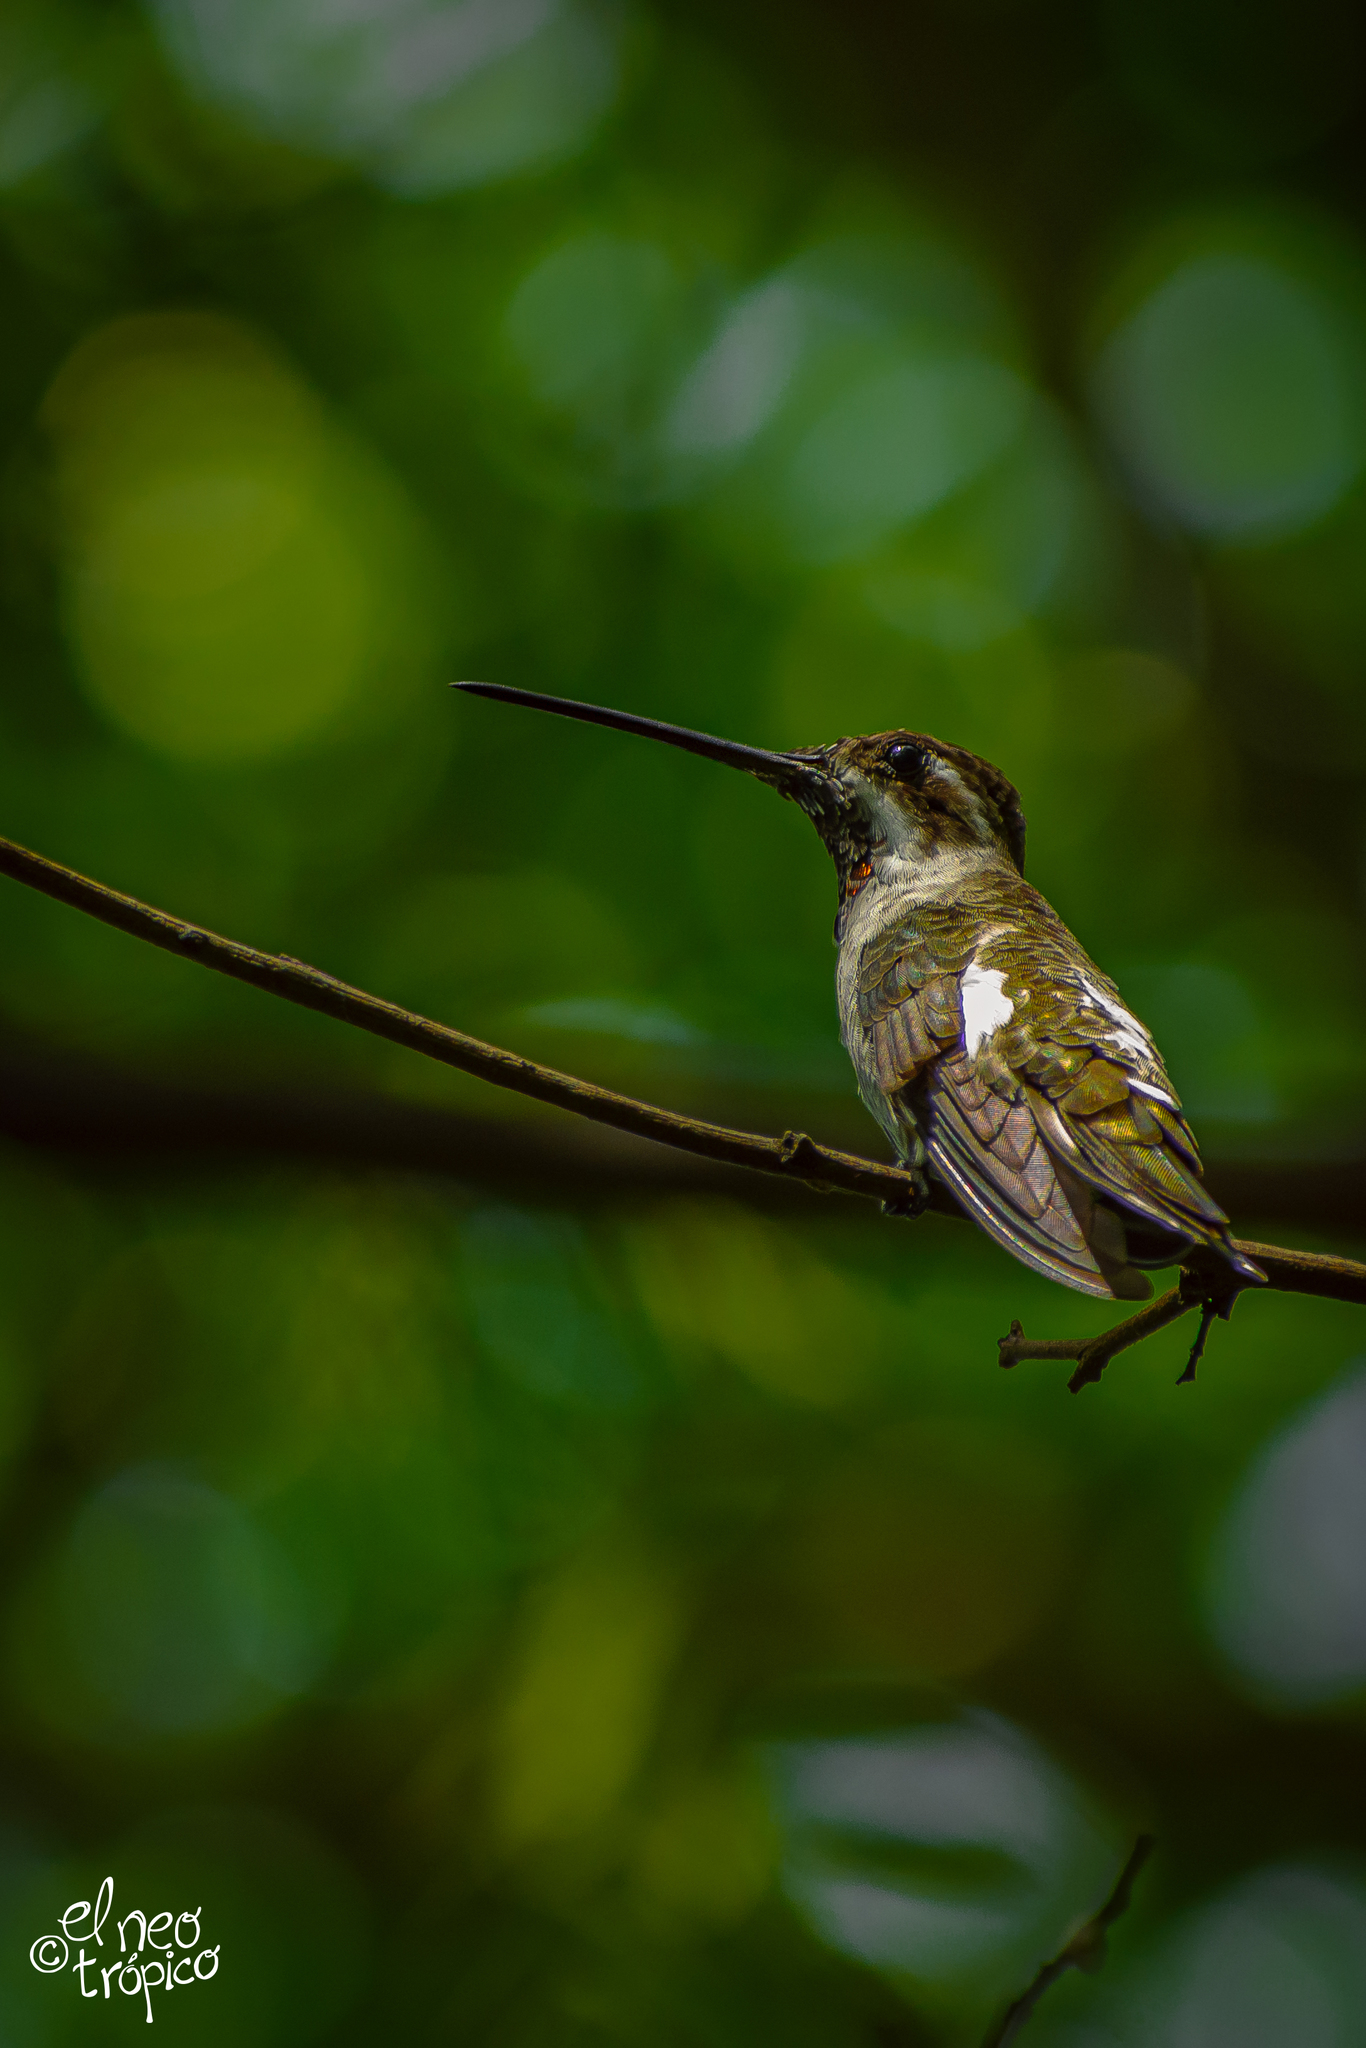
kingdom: Animalia
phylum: Chordata
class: Aves
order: Apodiformes
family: Trochilidae
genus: Heliomaster
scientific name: Heliomaster constantii
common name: Plain-capped starthroat
